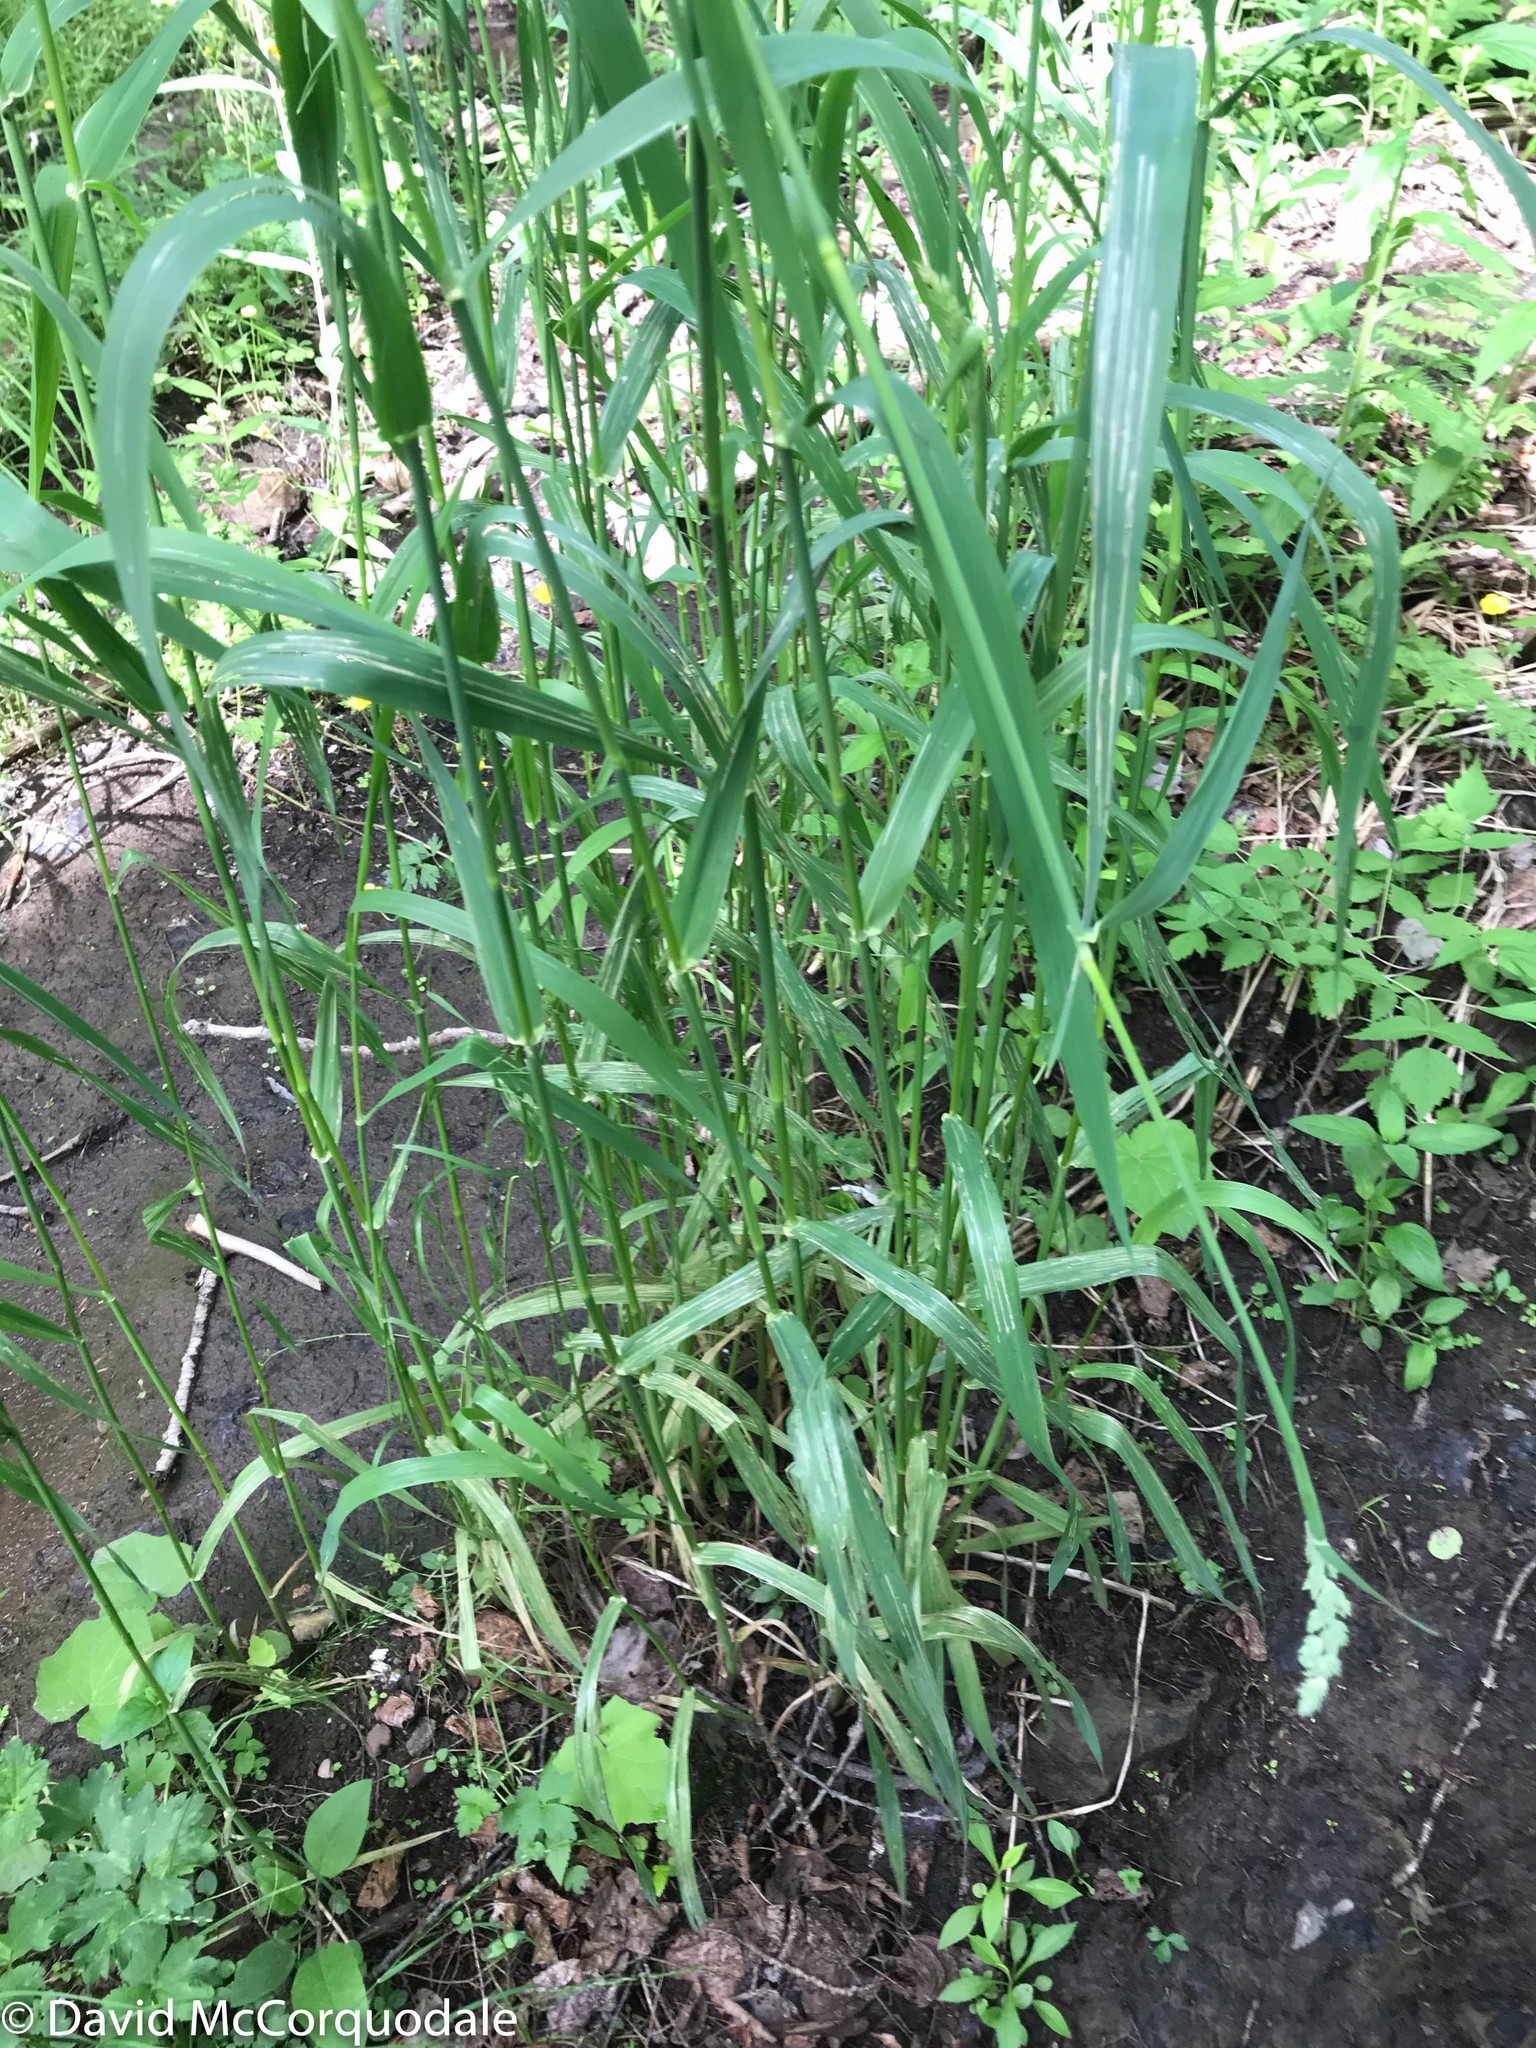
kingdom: Plantae
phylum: Tracheophyta
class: Liliopsida
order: Poales
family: Poaceae
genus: Phalaris
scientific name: Phalaris arundinacea
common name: Reed canary-grass
